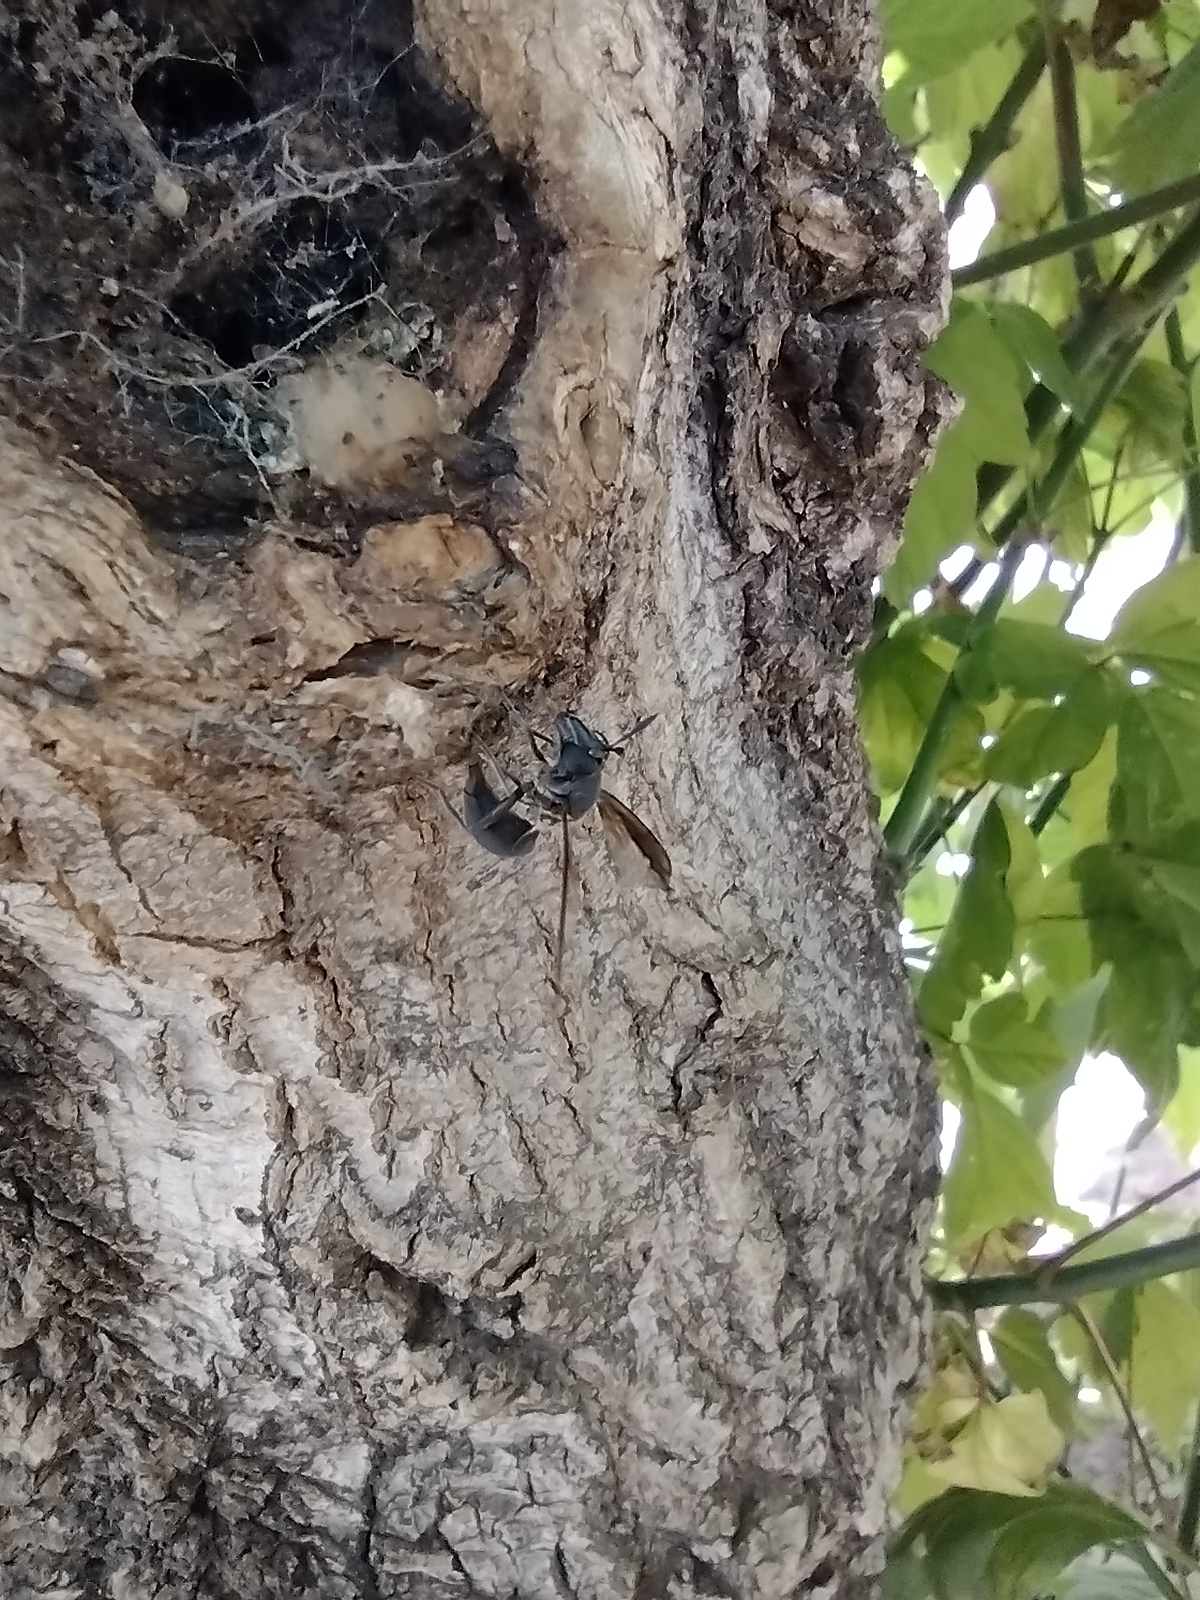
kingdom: Animalia
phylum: Arthropoda
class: Insecta
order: Hymenoptera
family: Eumenidae
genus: Polybia
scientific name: Polybia scutellaris
